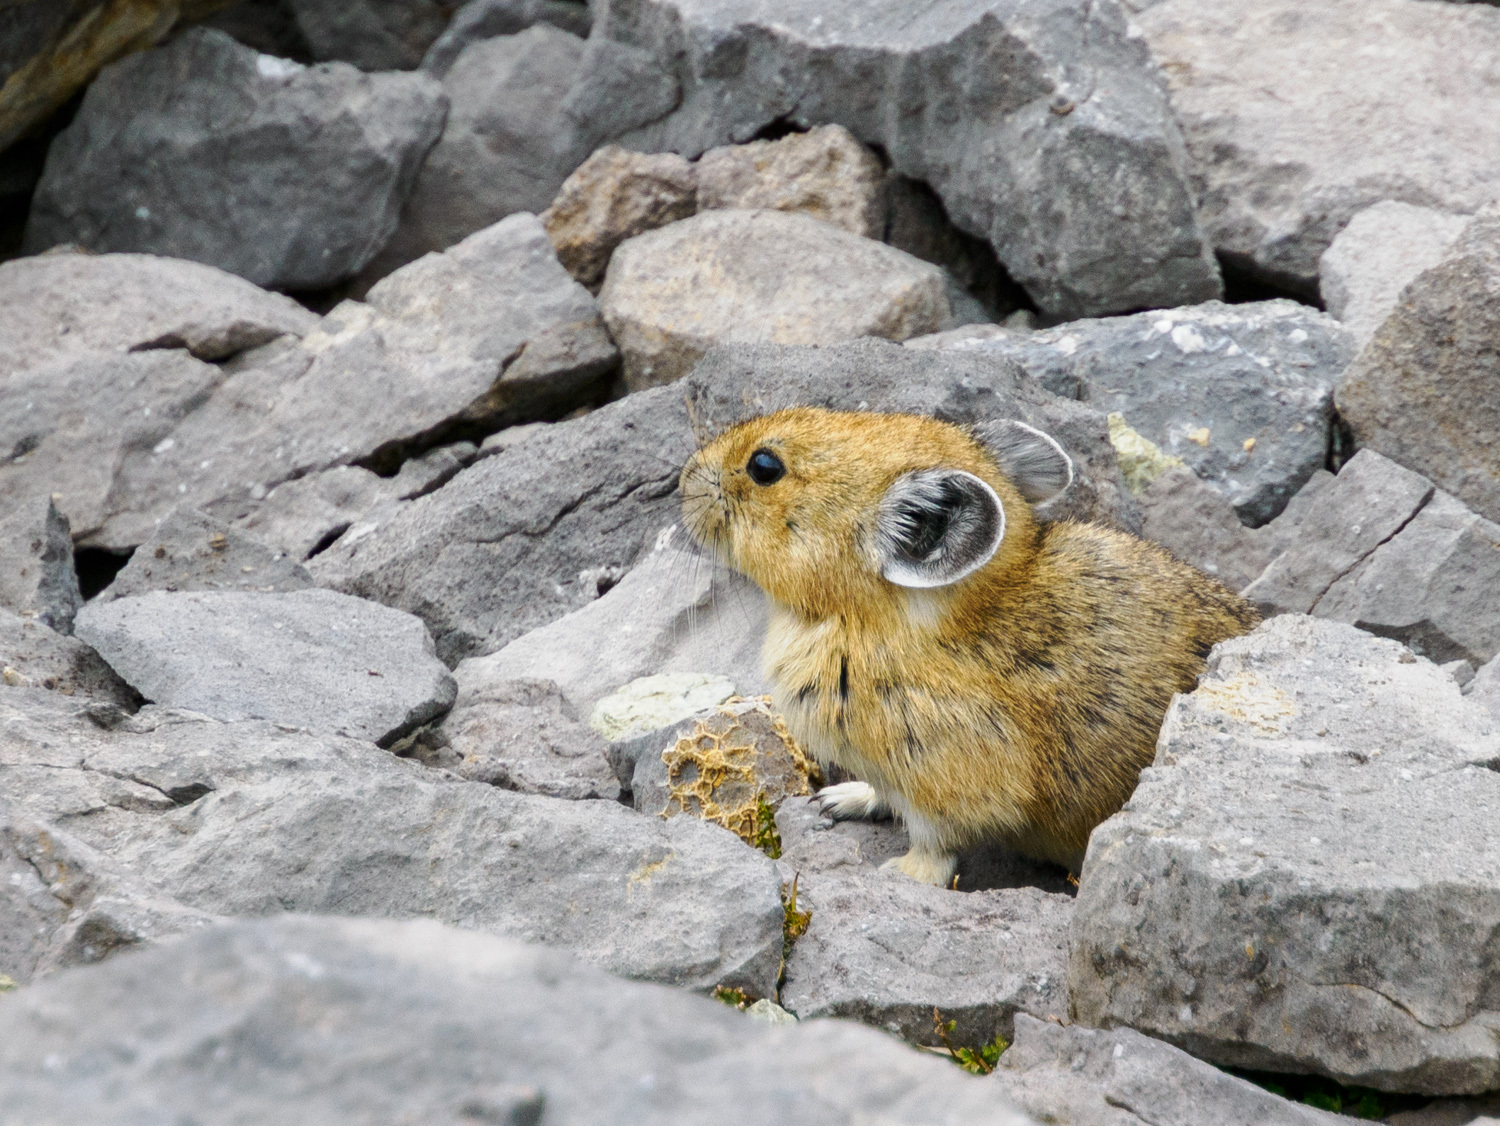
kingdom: Animalia
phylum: Chordata
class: Mammalia
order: Lagomorpha
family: Ochotonidae
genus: Ochotona
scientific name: Ochotona princeps
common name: American pika
